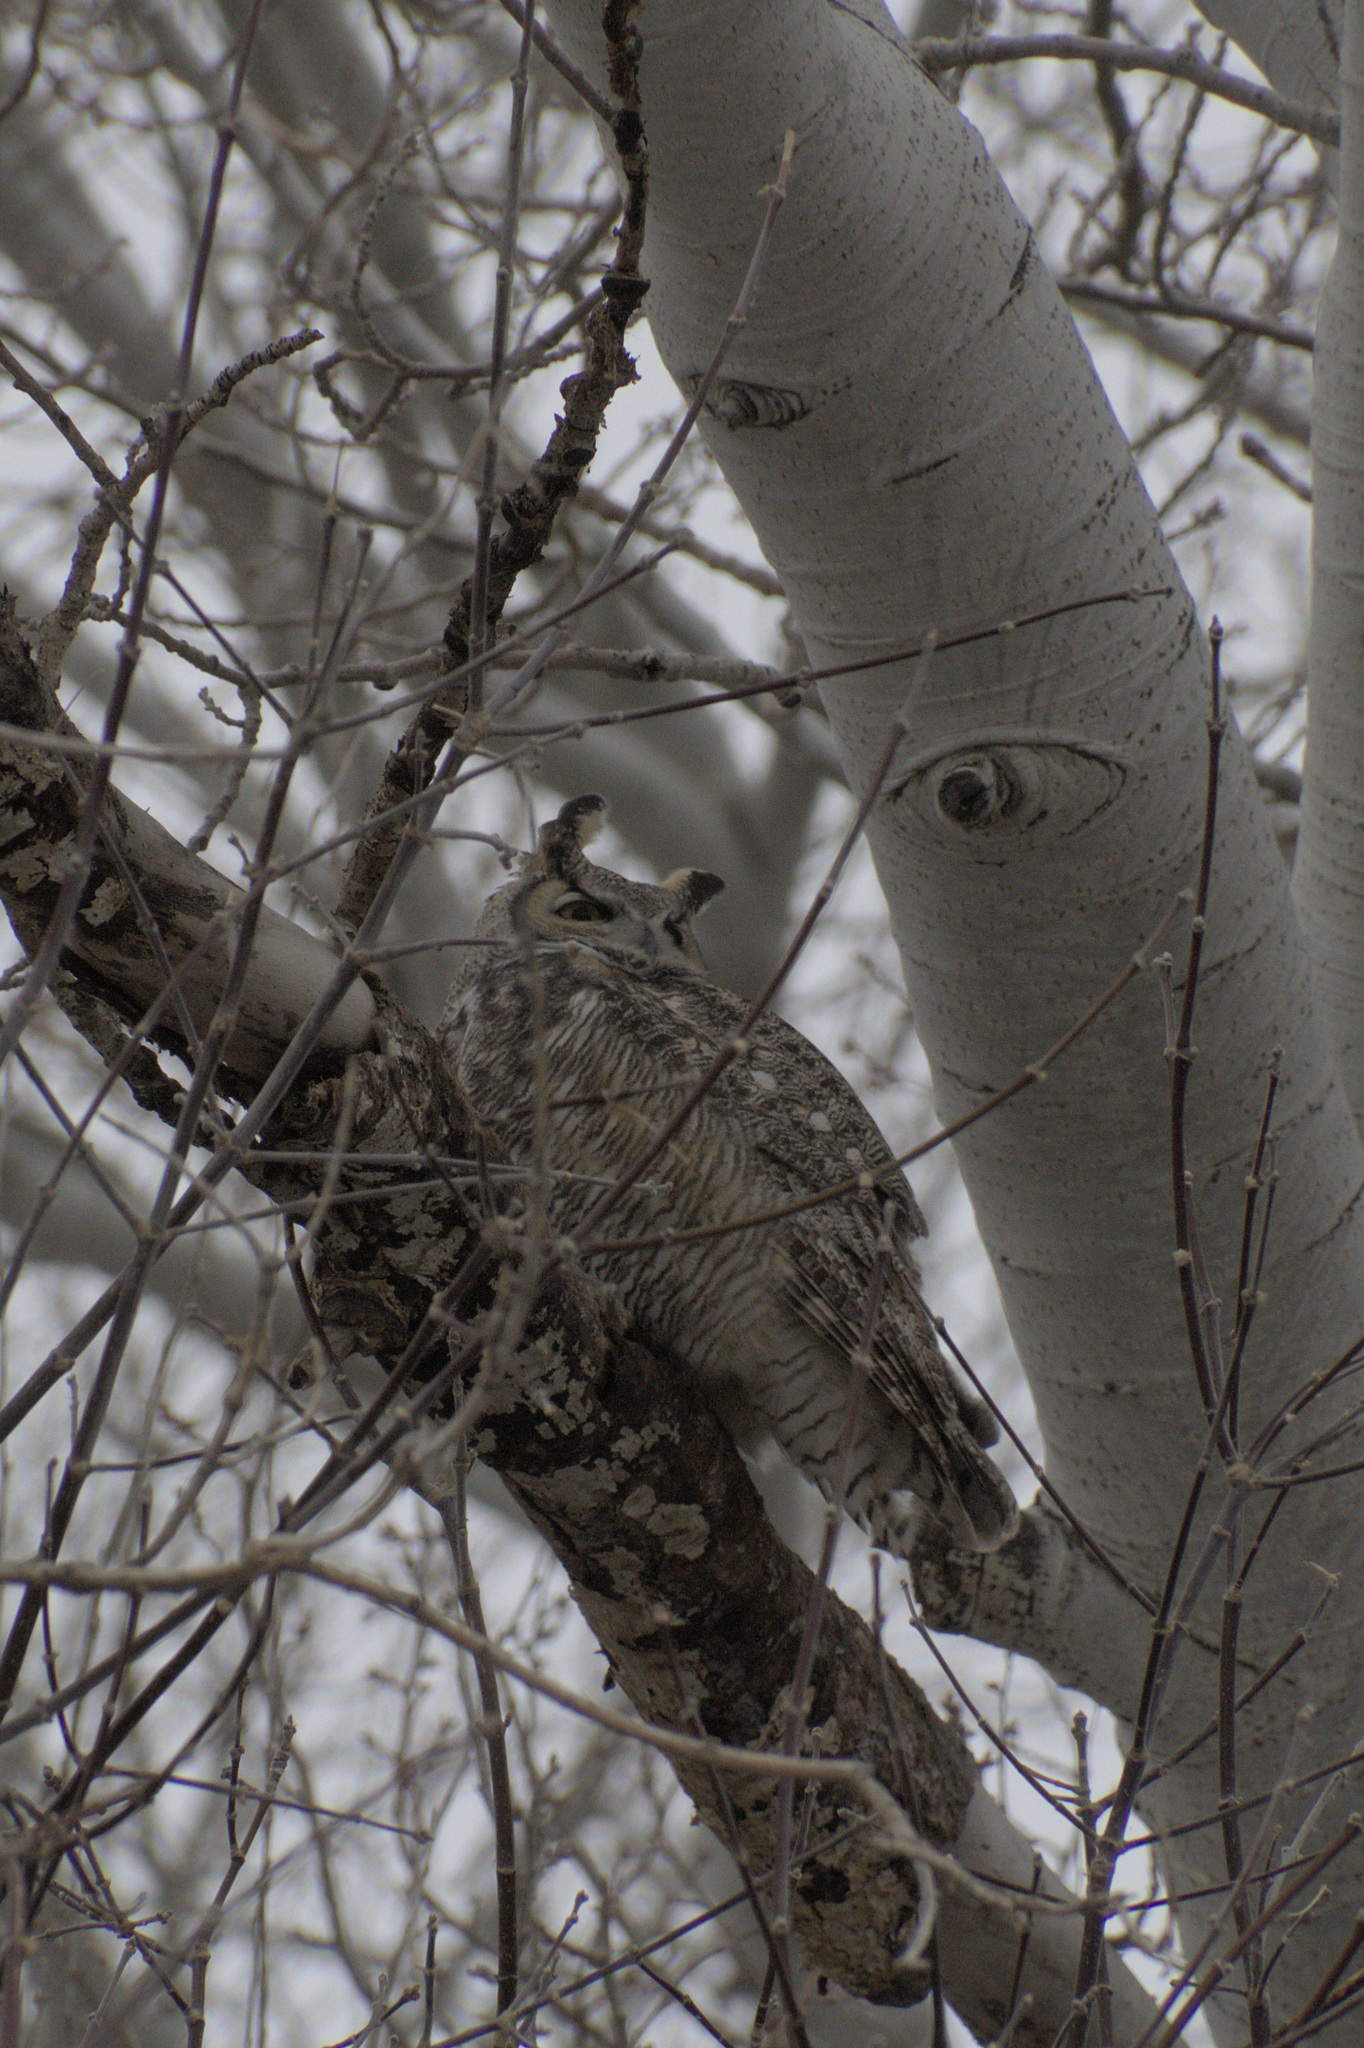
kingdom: Animalia
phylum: Chordata
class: Aves
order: Strigiformes
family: Strigidae
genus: Bubo
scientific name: Bubo virginianus
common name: Great horned owl
